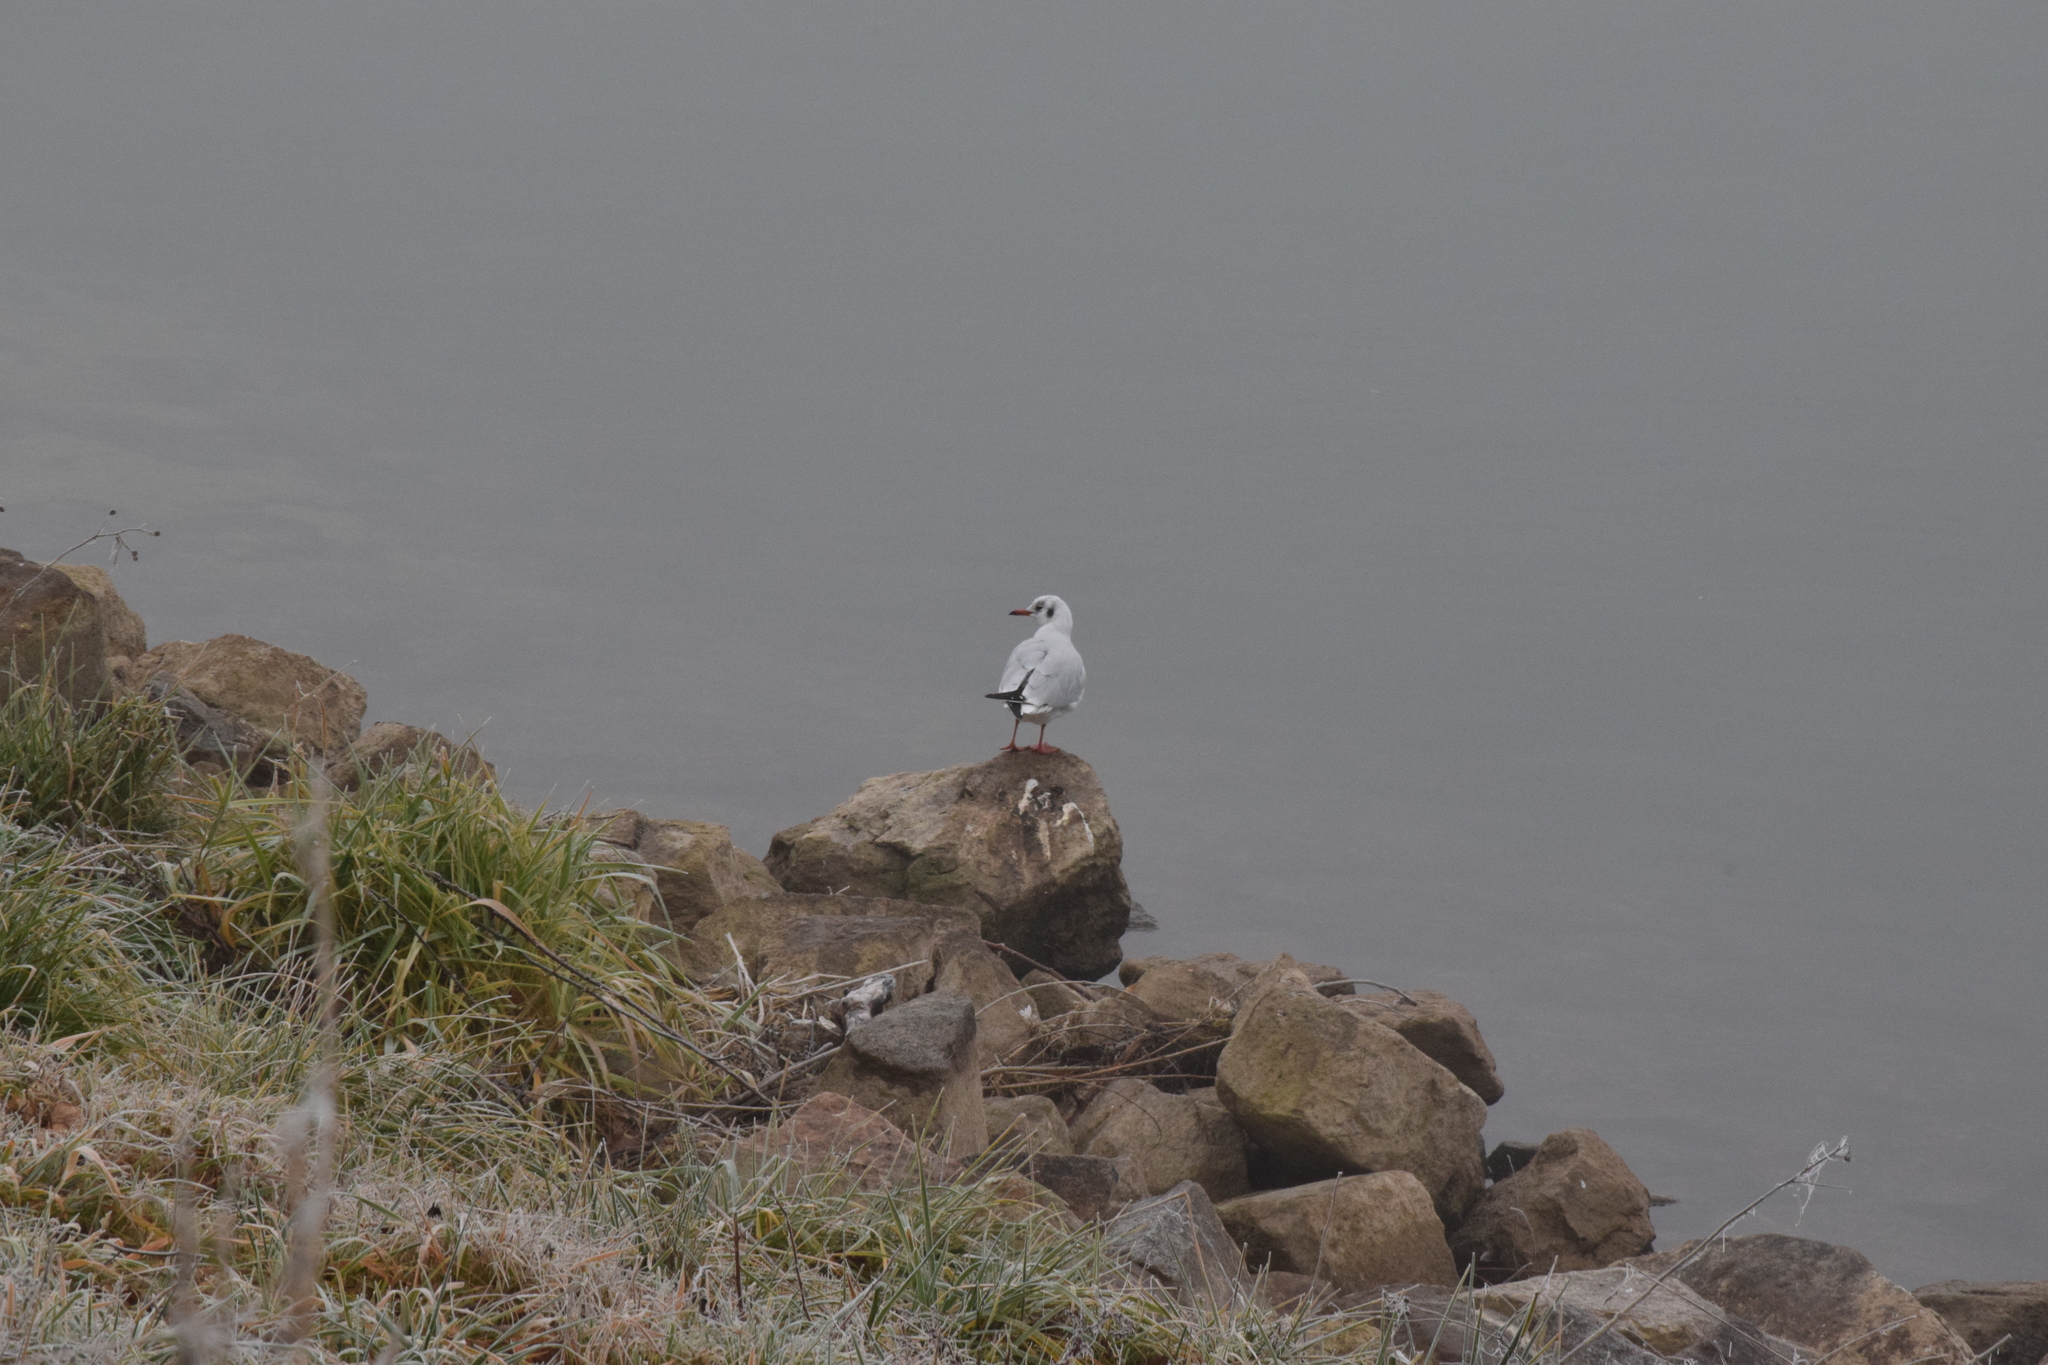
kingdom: Animalia
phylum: Chordata
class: Aves
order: Charadriiformes
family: Laridae
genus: Chroicocephalus
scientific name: Chroicocephalus ridibundus
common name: Black-headed gull
